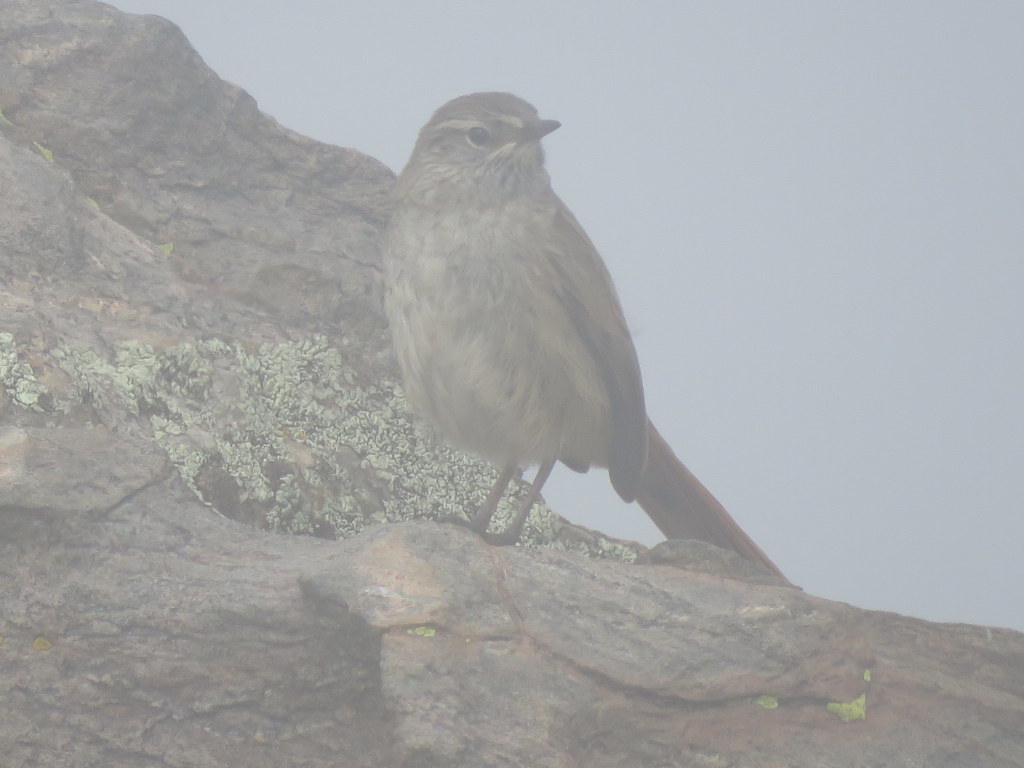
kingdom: Animalia
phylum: Chordata
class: Aves
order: Passeriformes
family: Furnariidae
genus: Asthenes
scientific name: Asthenes wyatti
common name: Streak-backed canastero
